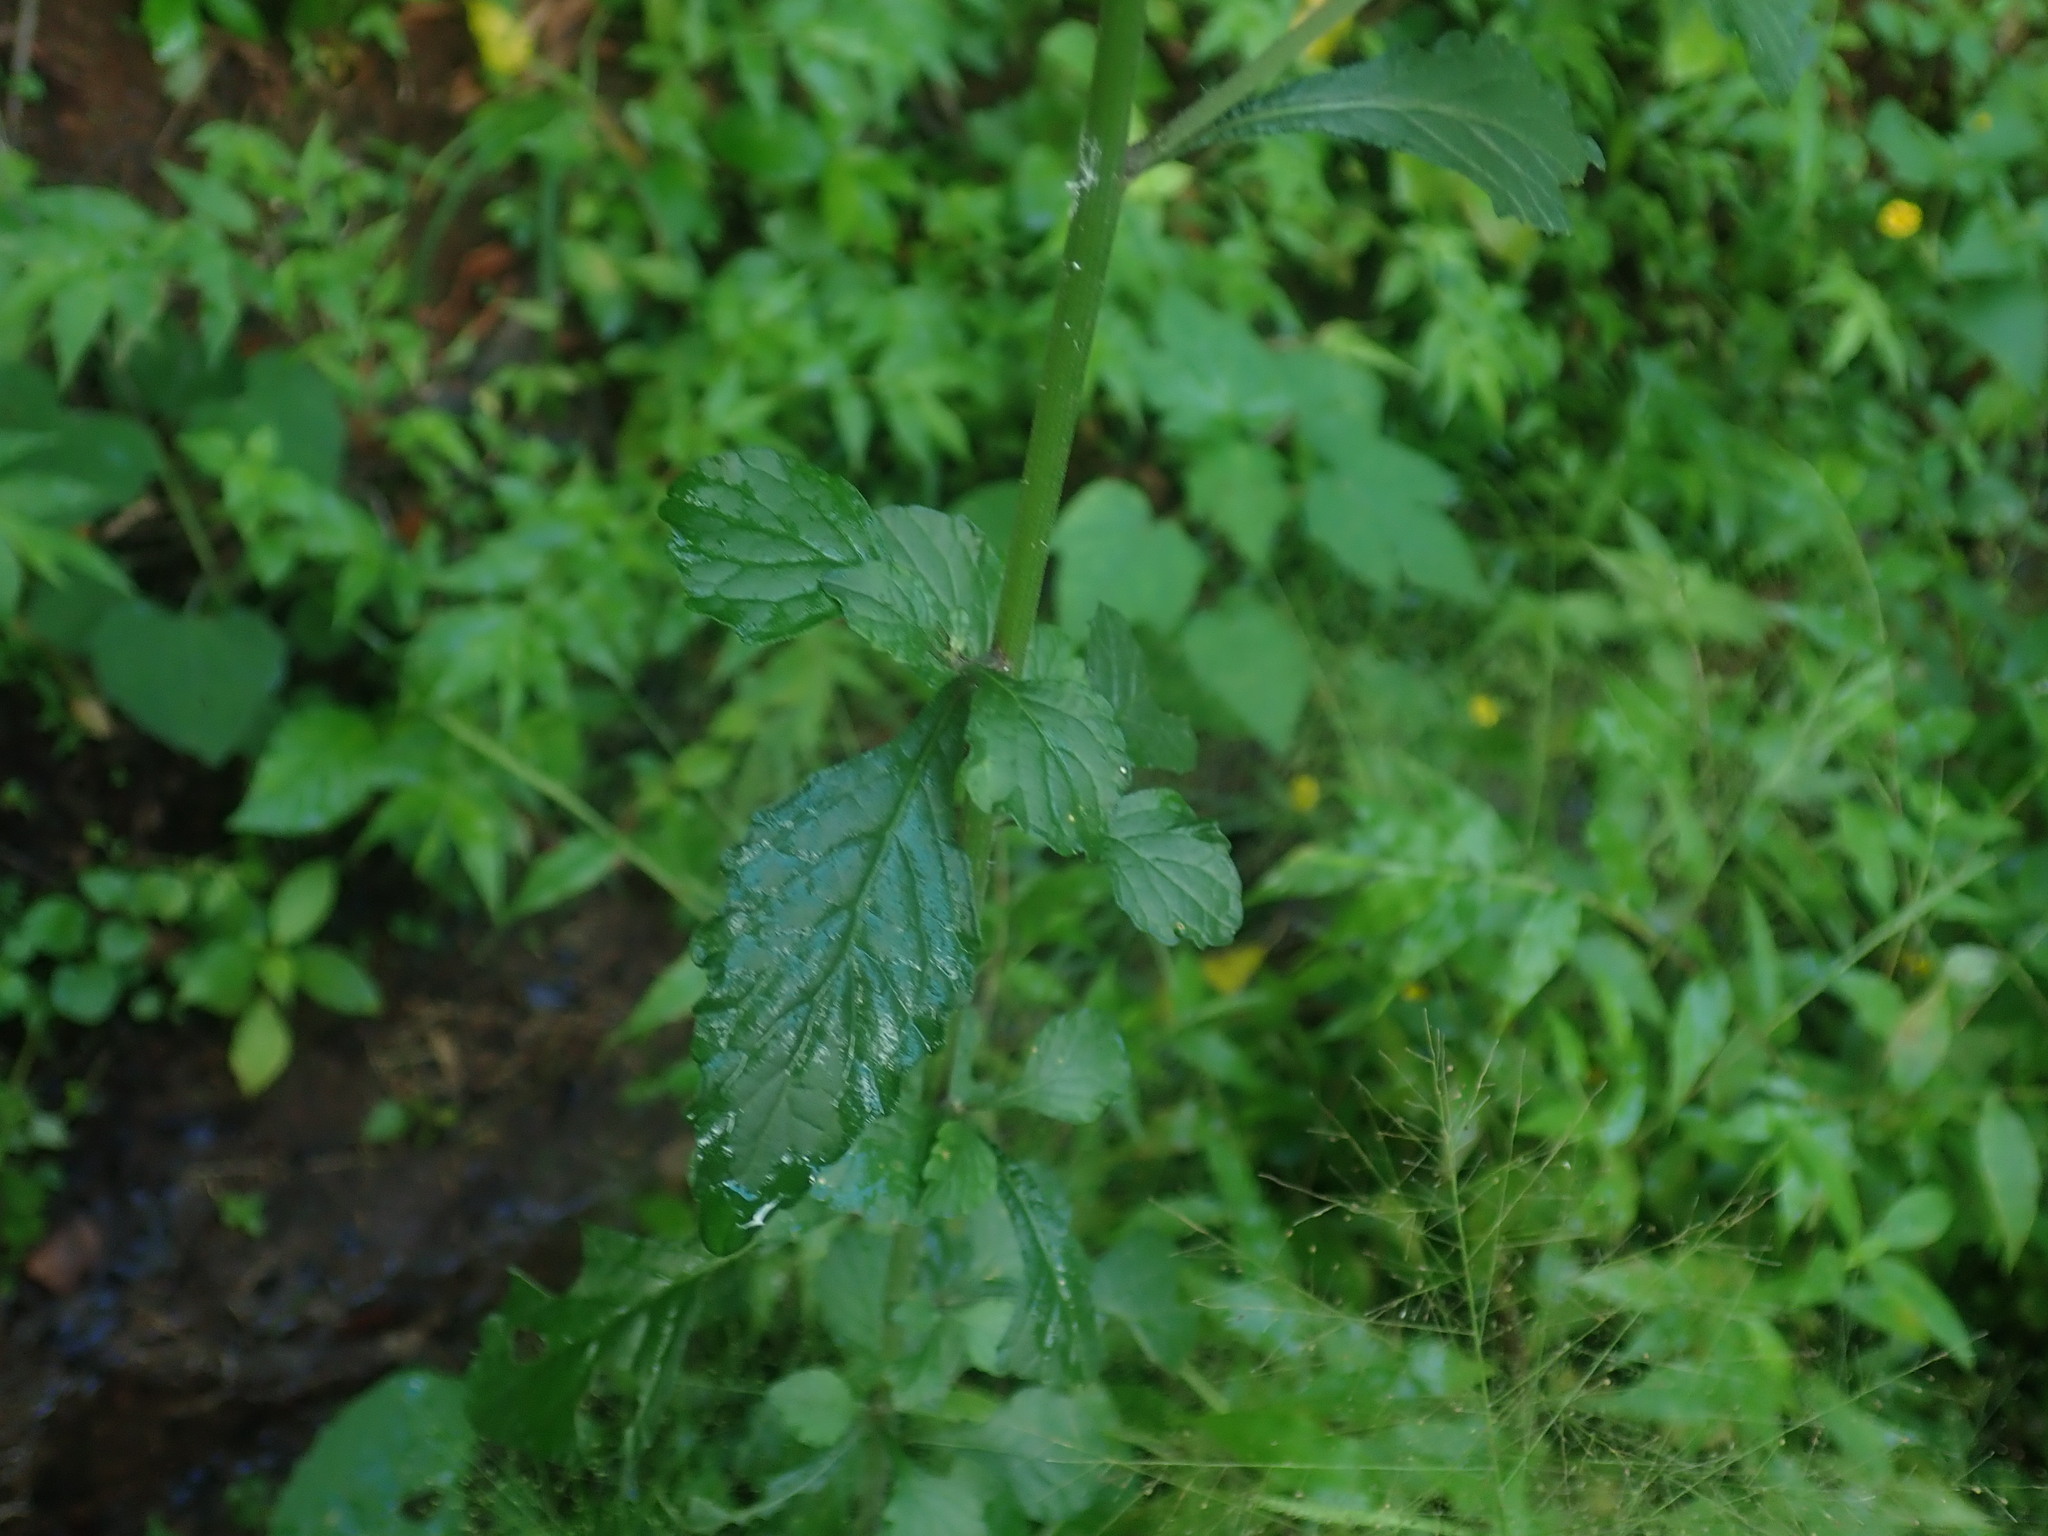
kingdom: Plantae
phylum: Tracheophyta
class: Magnoliopsida
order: Asterales
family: Asteraceae
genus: Cyanthillium
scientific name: Cyanthillium cinereum
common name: Little ironweed
